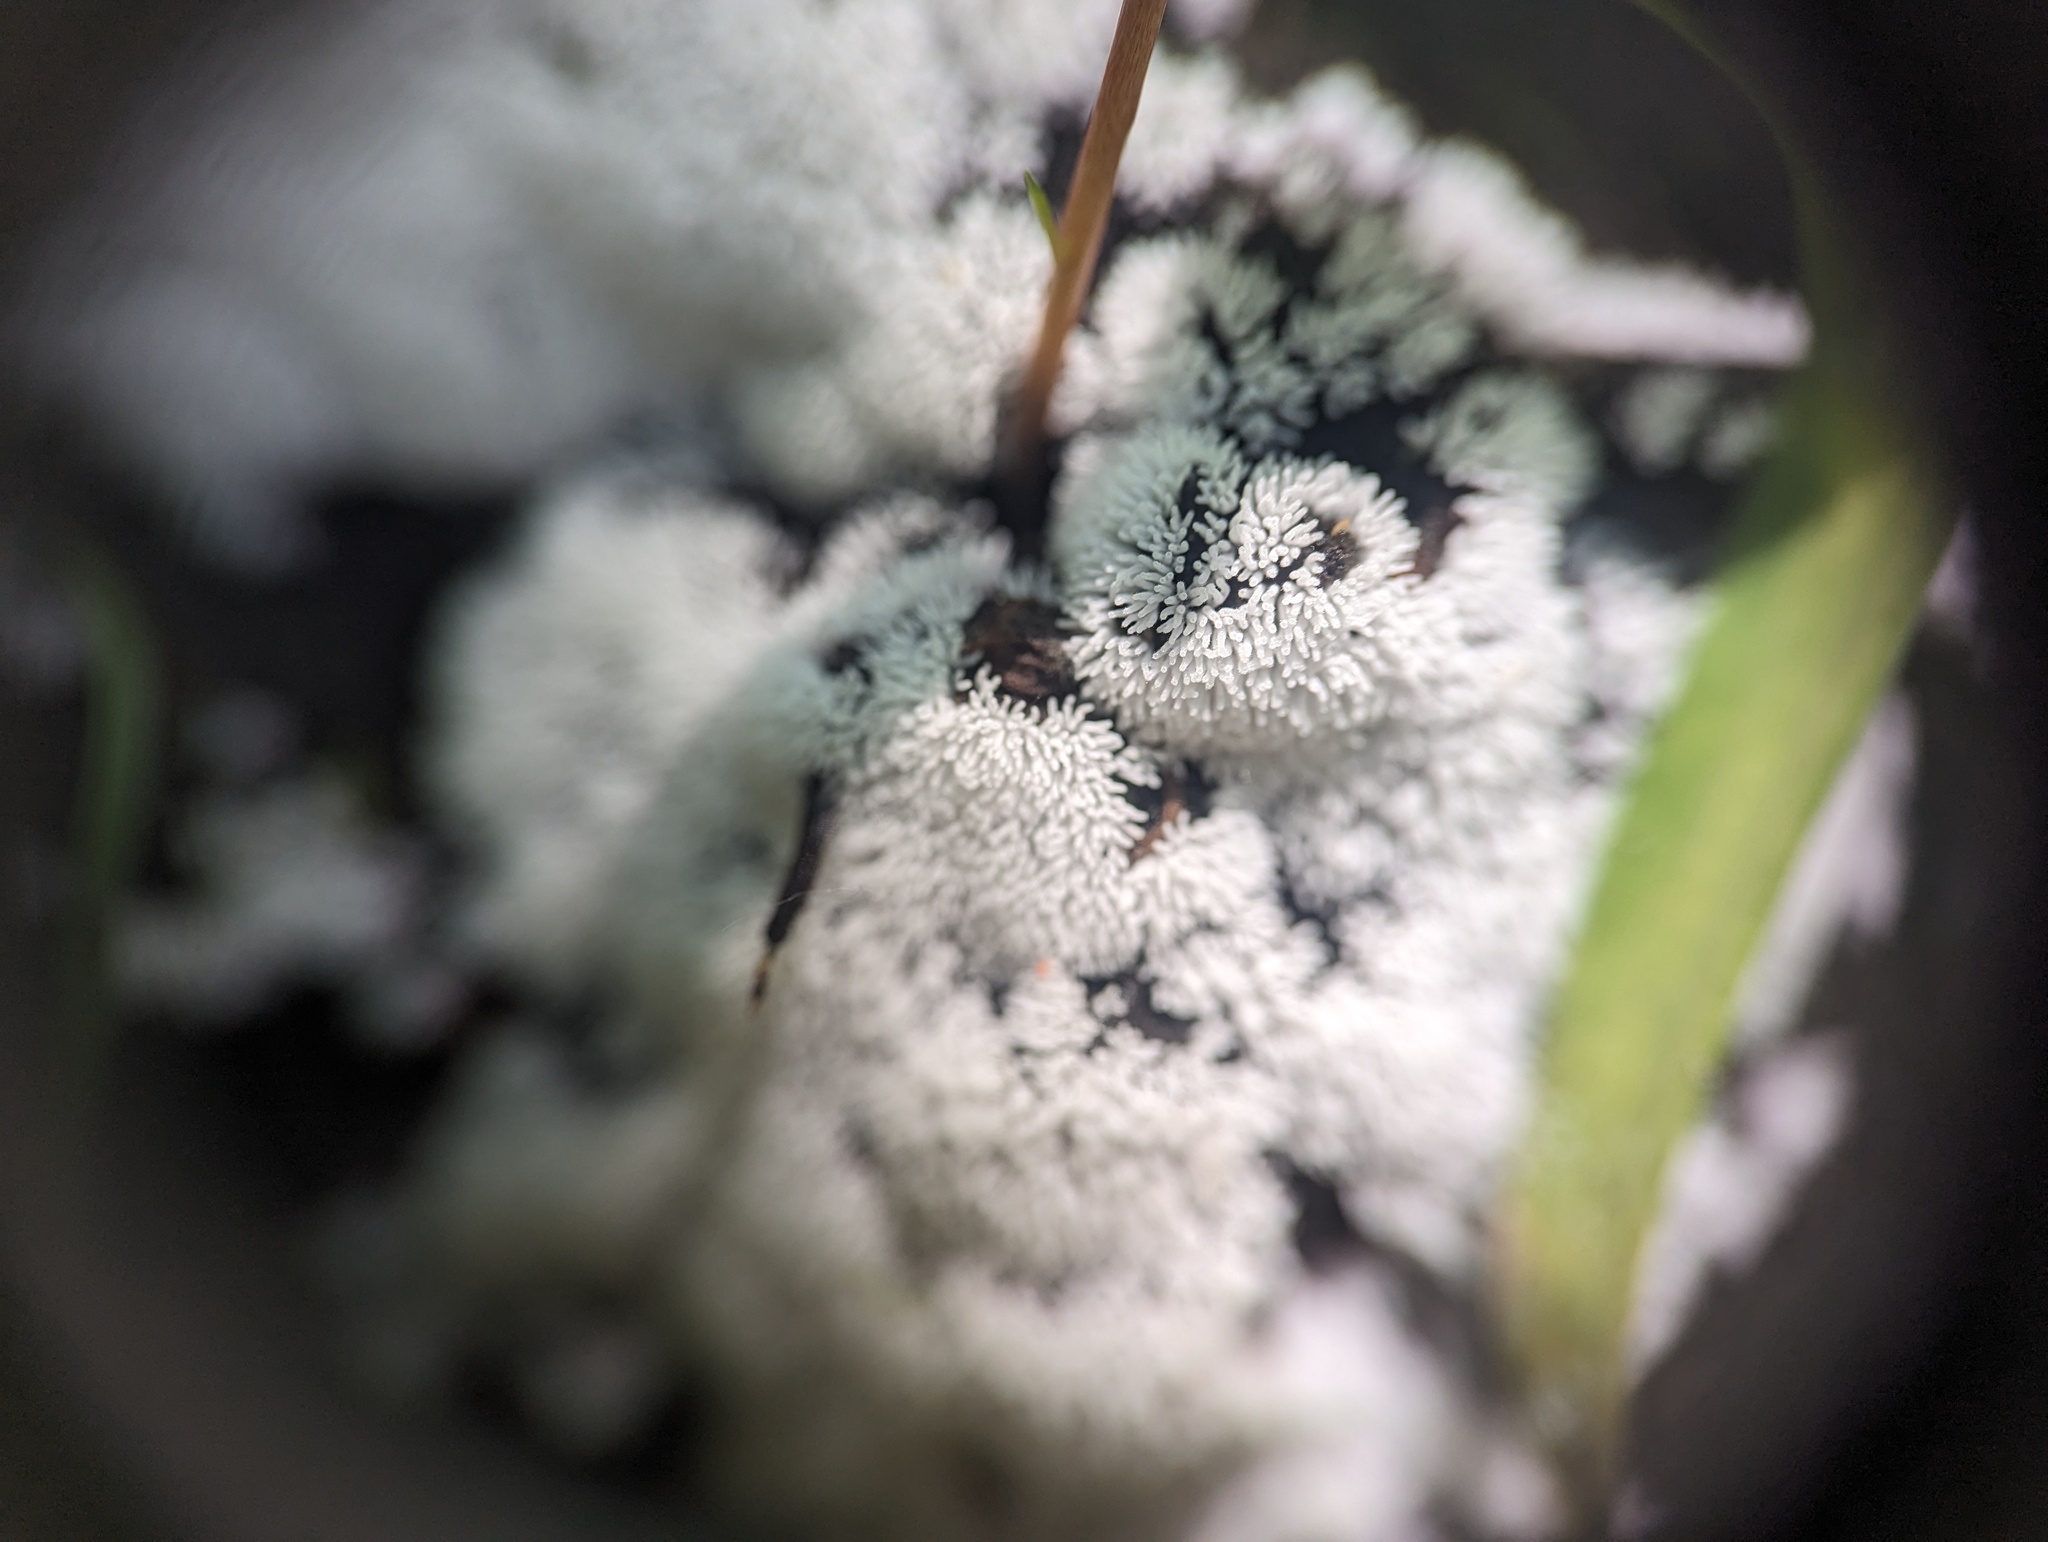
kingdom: Protozoa
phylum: Mycetozoa
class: Protosteliomycetes
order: Ceratiomyxales
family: Ceratiomyxaceae
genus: Ceratiomyxa
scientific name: Ceratiomyxa fruticulosa
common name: Honeycomb coral slime mold
